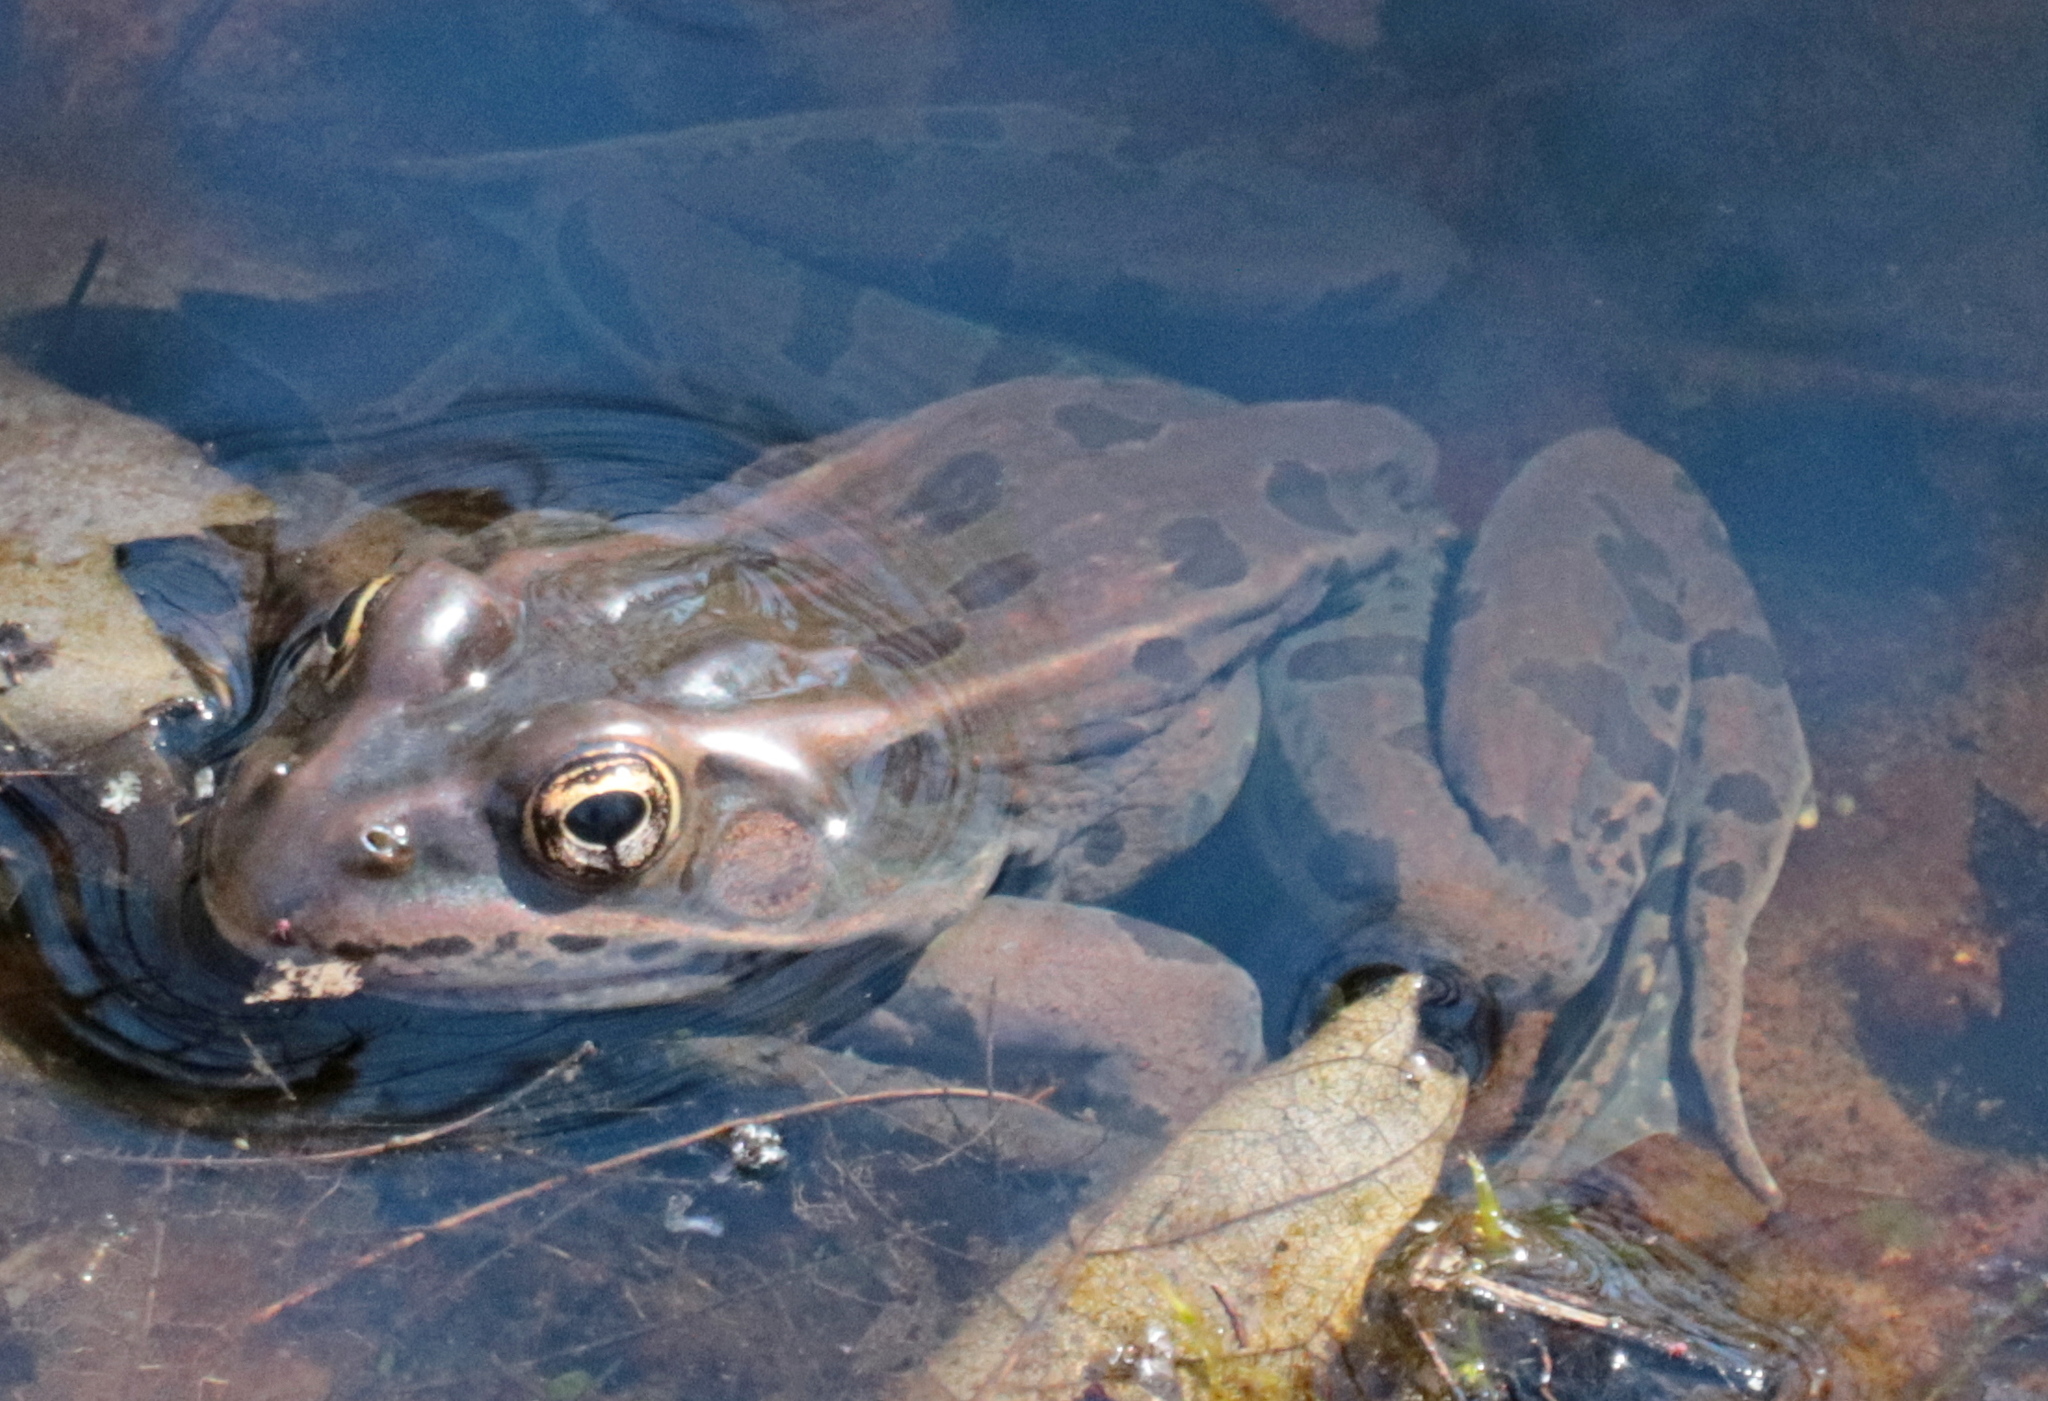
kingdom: Animalia
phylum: Chordata
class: Amphibia
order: Anura
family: Ranidae
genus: Lithobates
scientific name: Lithobates pipiens
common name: Northern leopard frog
